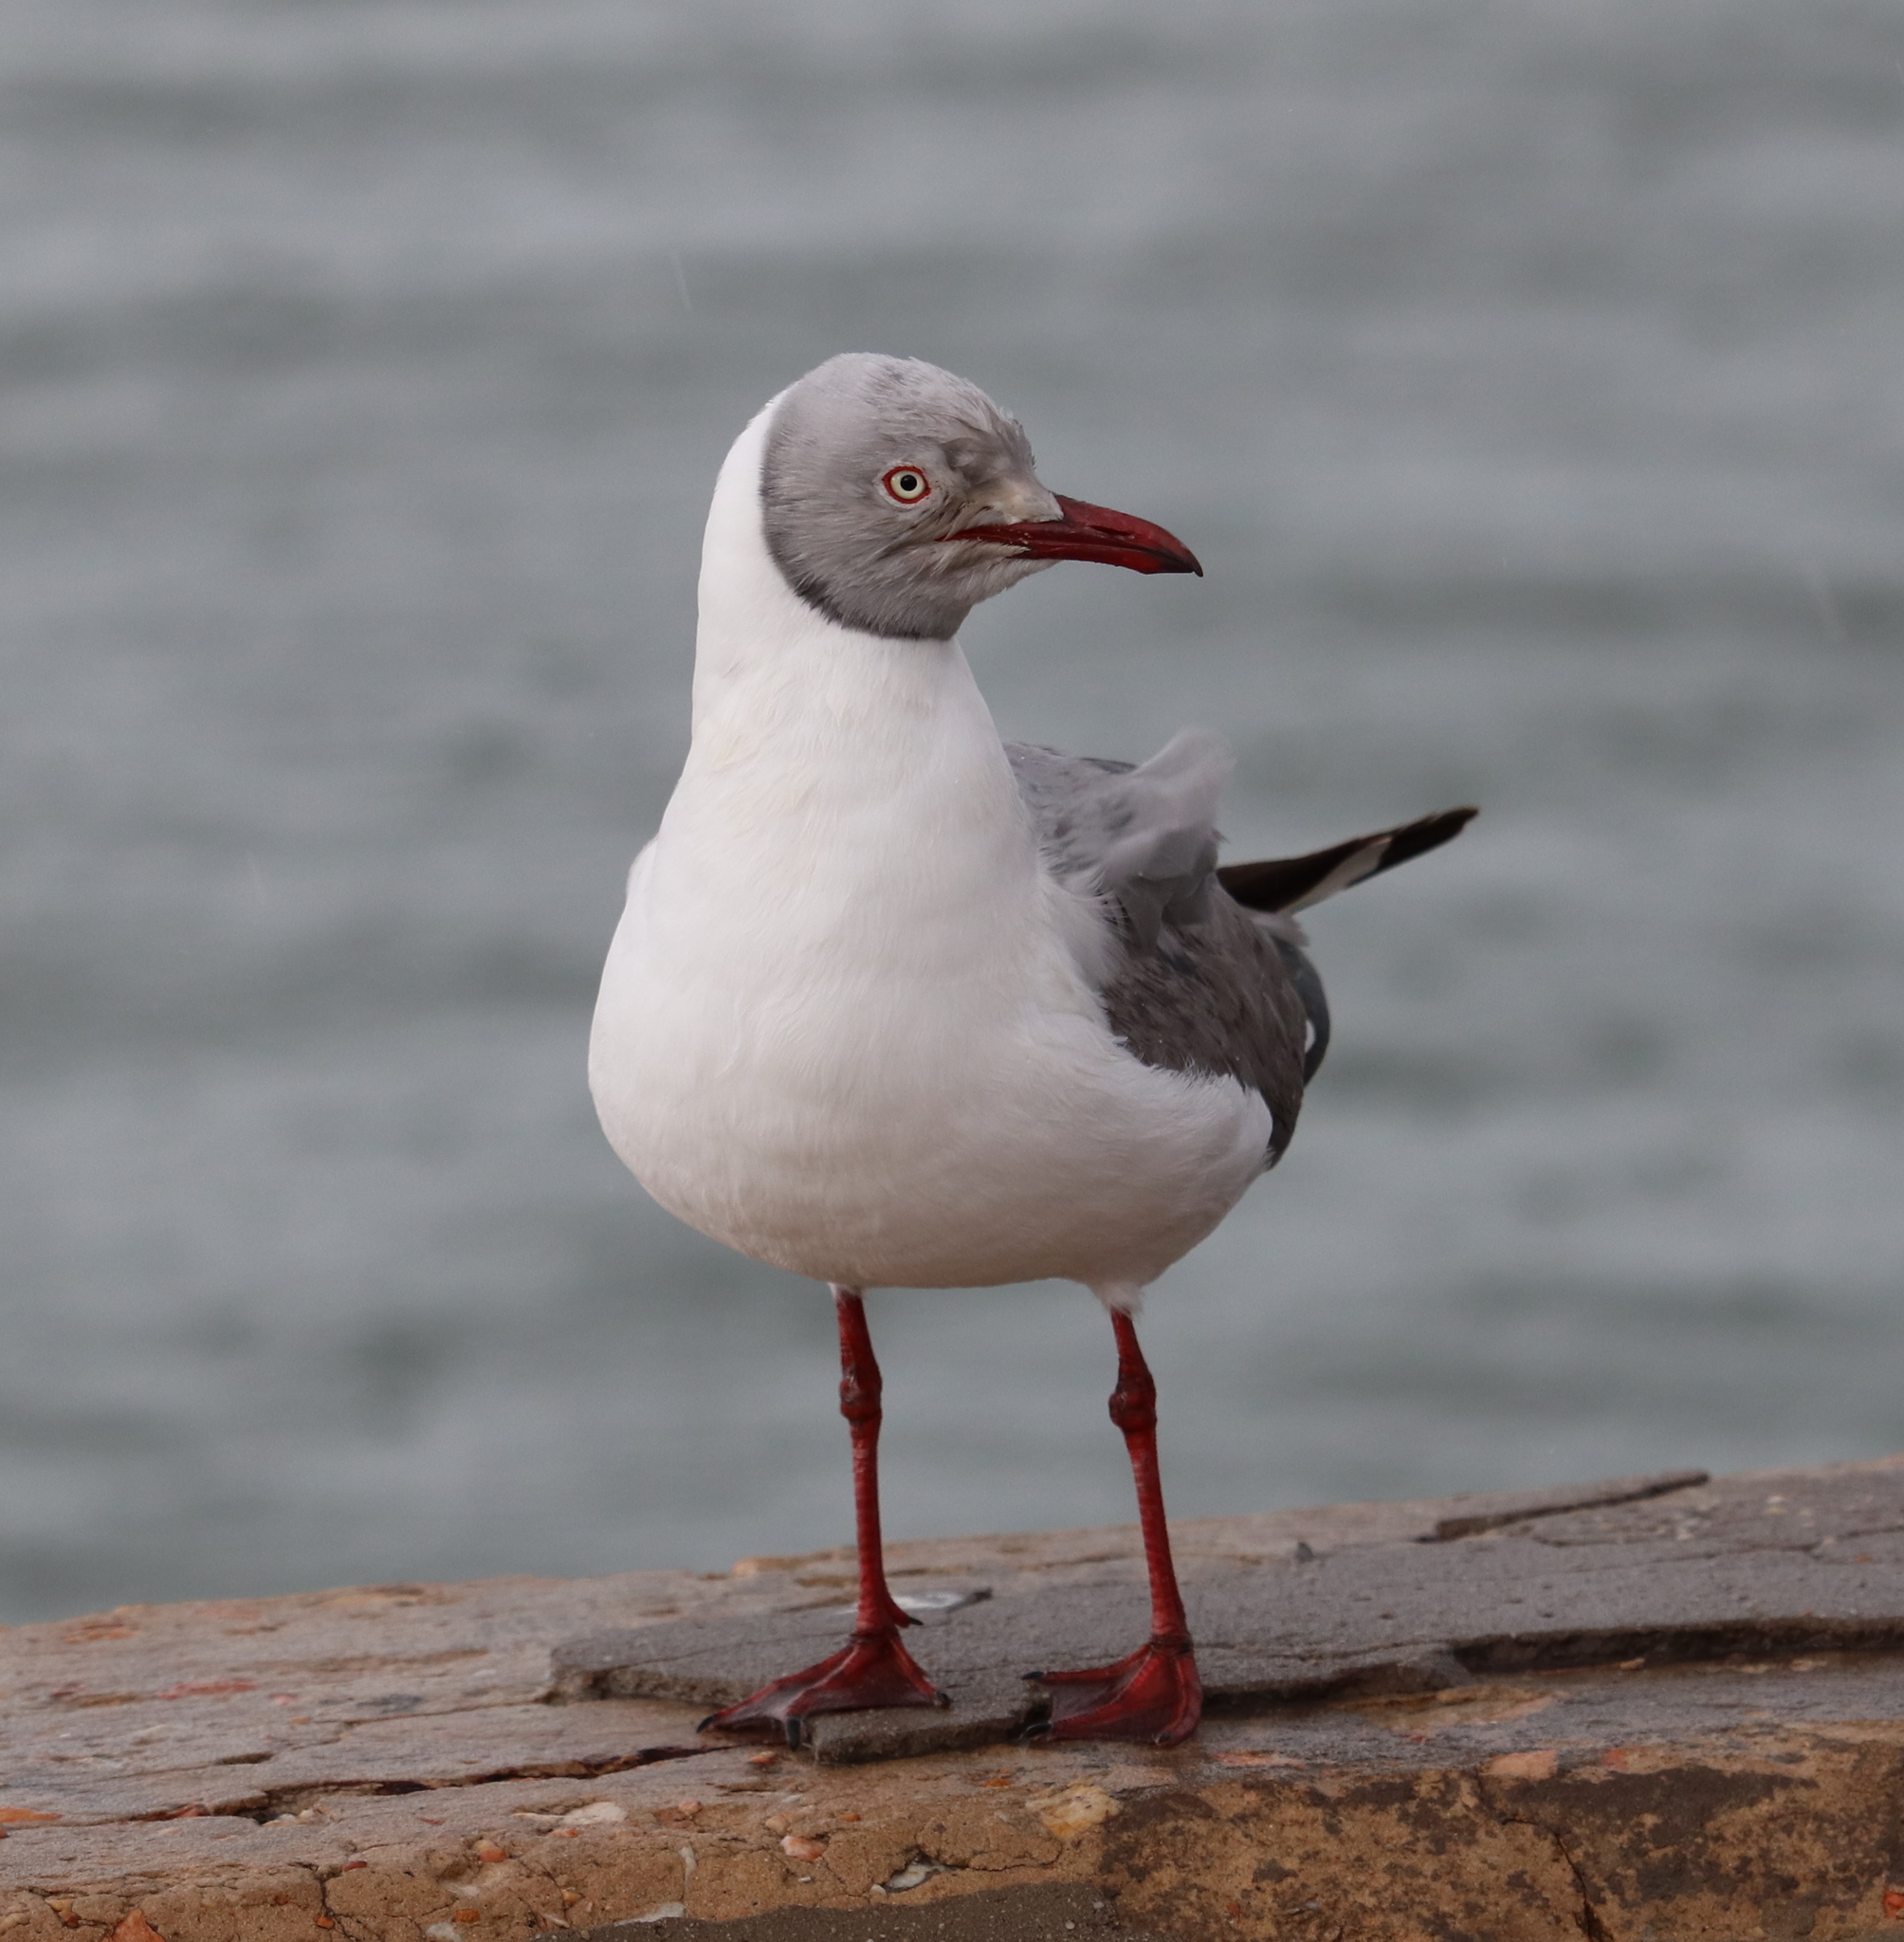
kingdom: Animalia
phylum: Chordata
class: Aves
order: Charadriiformes
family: Laridae
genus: Chroicocephalus
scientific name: Chroicocephalus cirrocephalus
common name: Grey-headed gull
